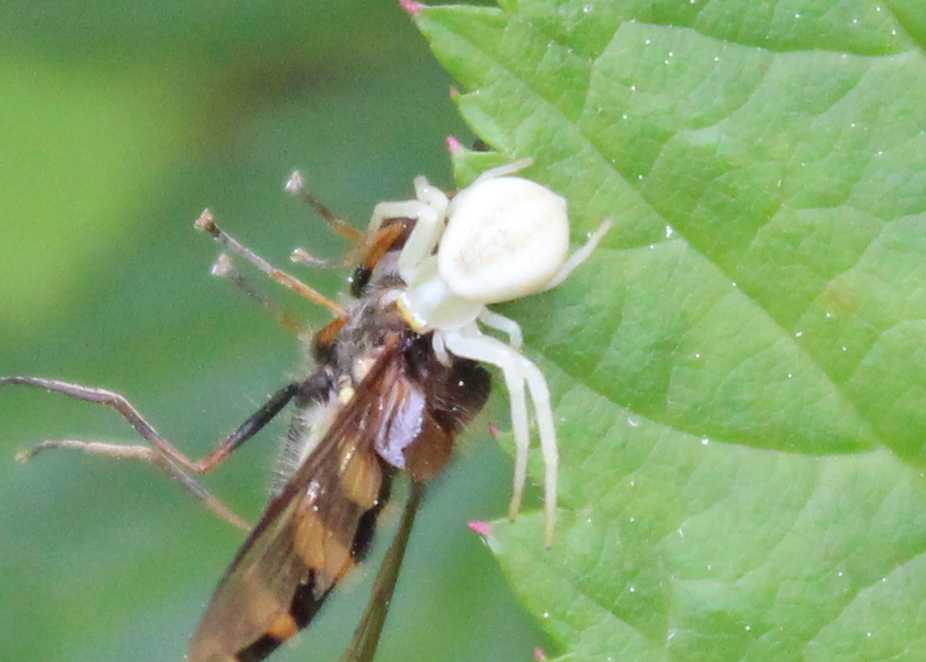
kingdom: Animalia
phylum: Arthropoda
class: Arachnida
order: Araneae
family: Thomisidae
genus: Misumena
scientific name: Misumena vatia
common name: Goldenrod crab spider
